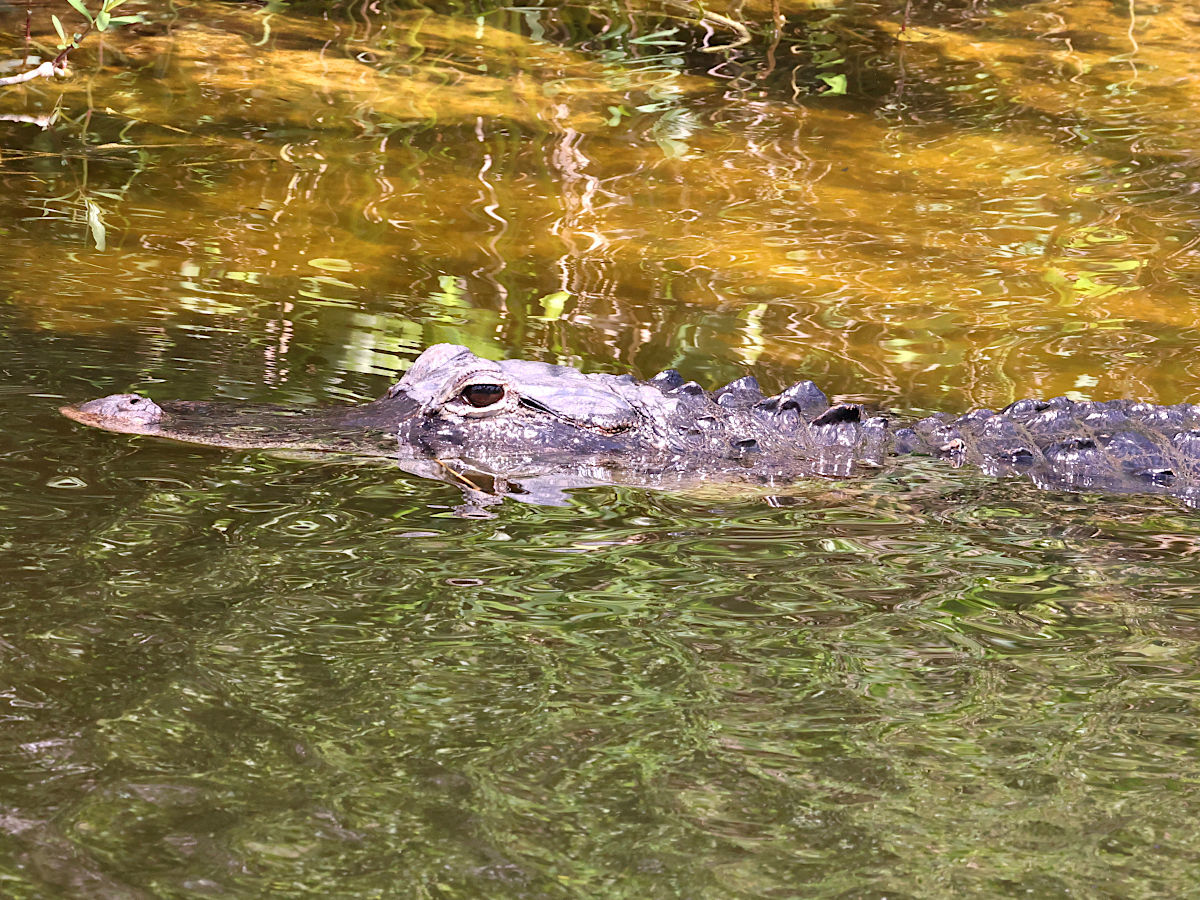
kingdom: Animalia
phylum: Chordata
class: Crocodylia
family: Alligatoridae
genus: Alligator
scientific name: Alligator mississippiensis
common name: American alligator
